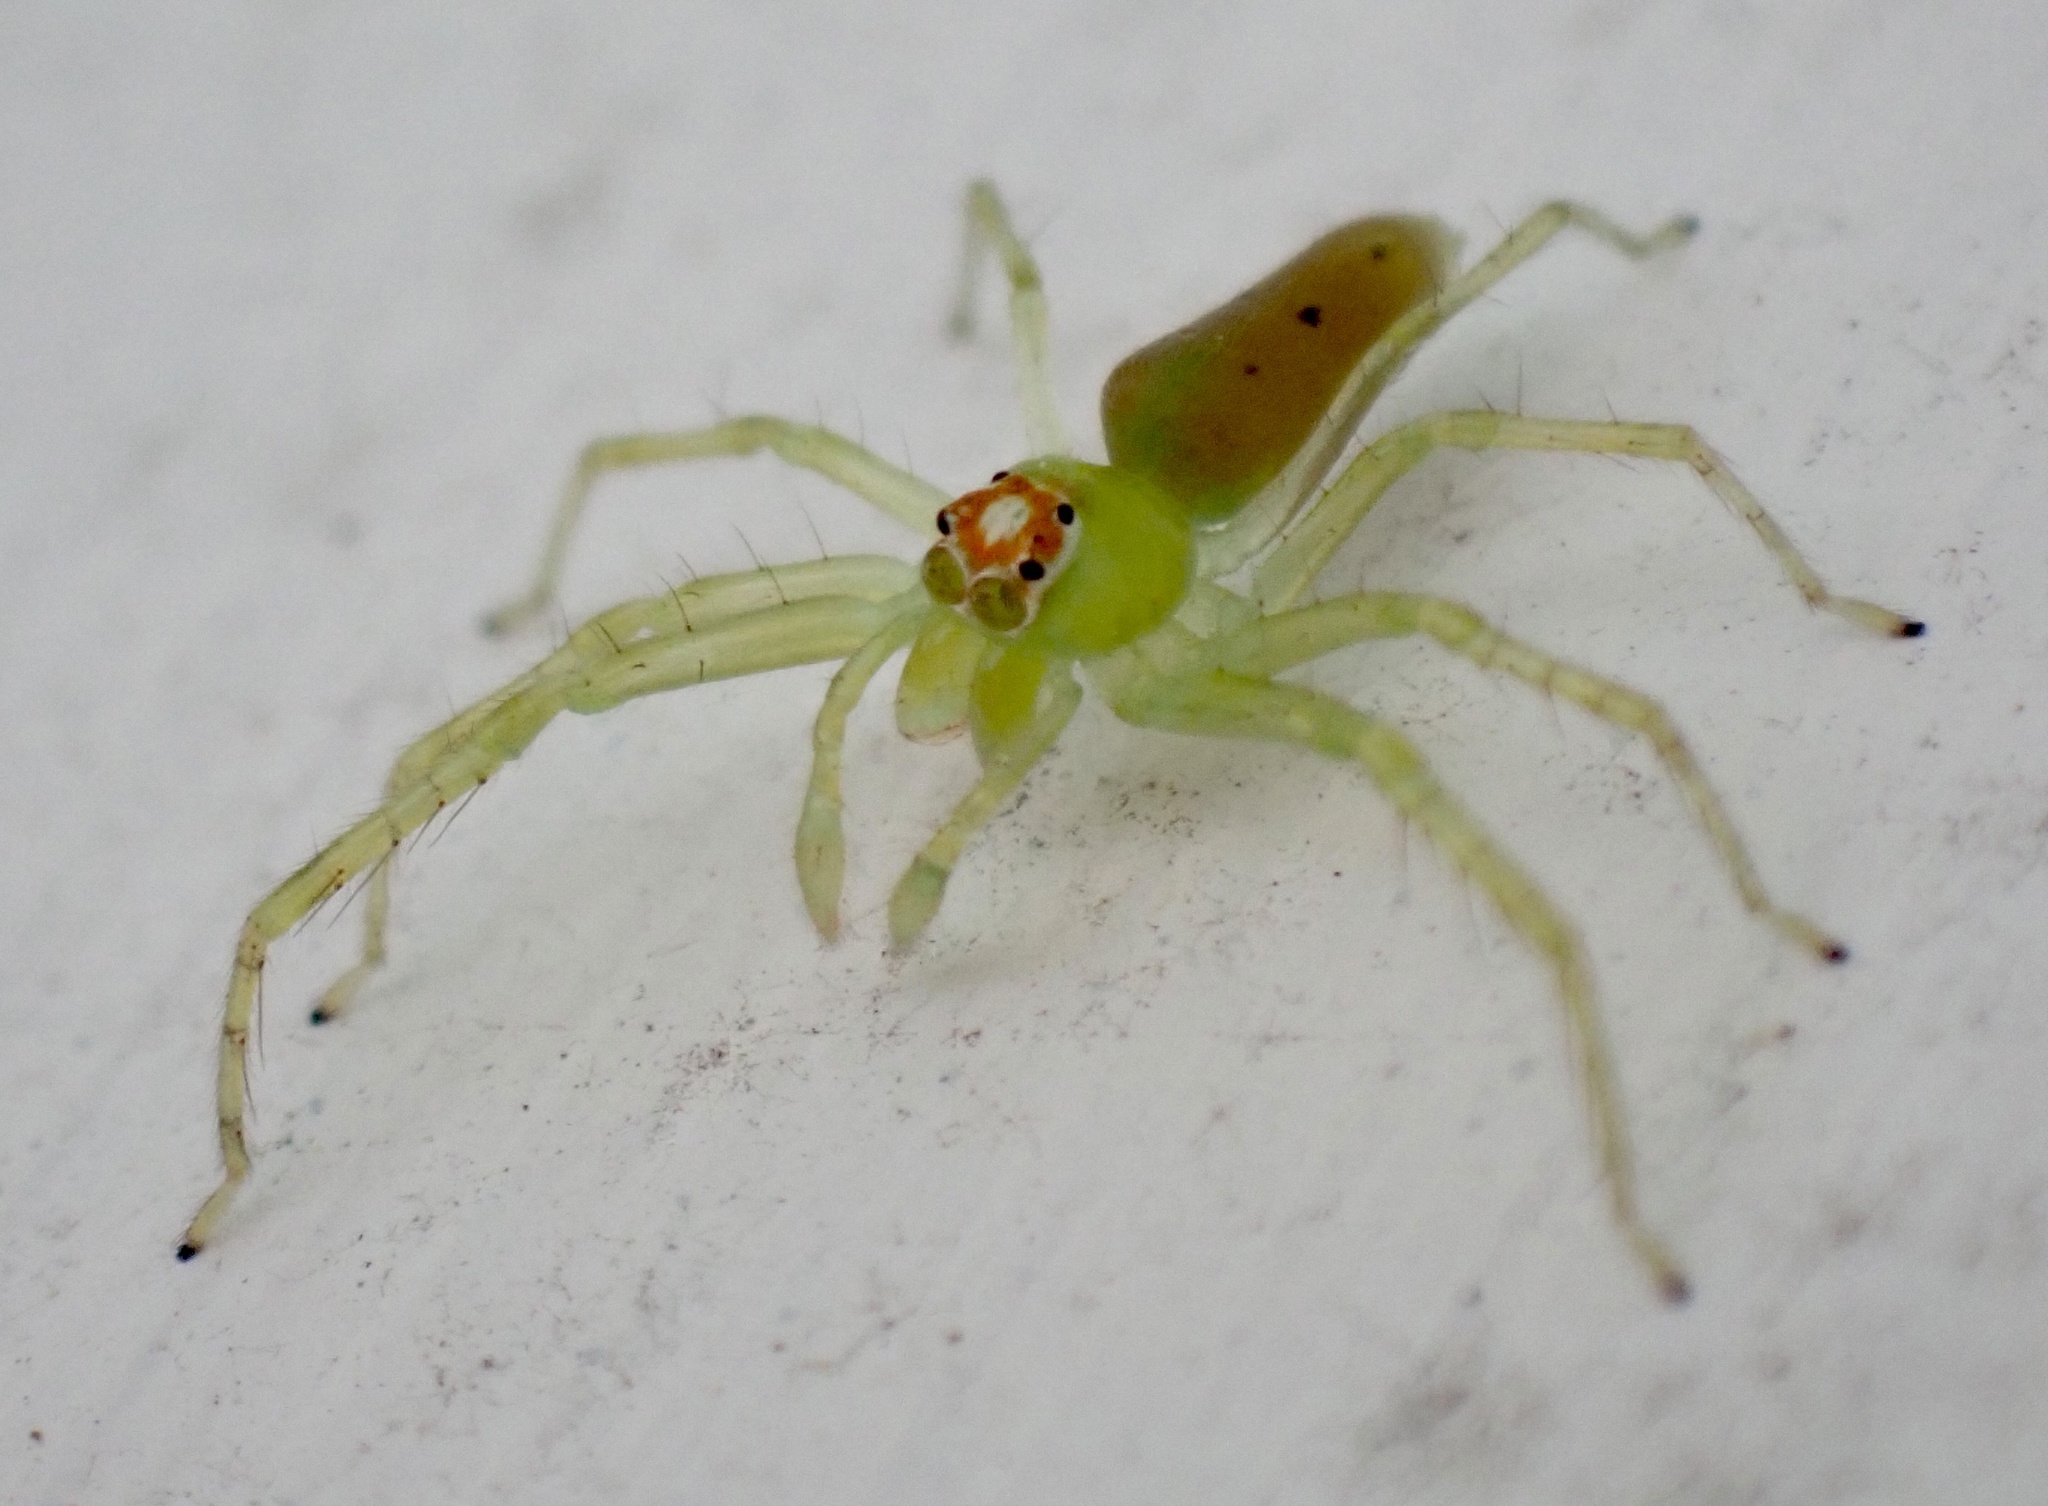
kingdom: Animalia
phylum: Arthropoda
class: Arachnida
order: Araneae
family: Salticidae
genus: Lyssomanes
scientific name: Lyssomanes viridis
